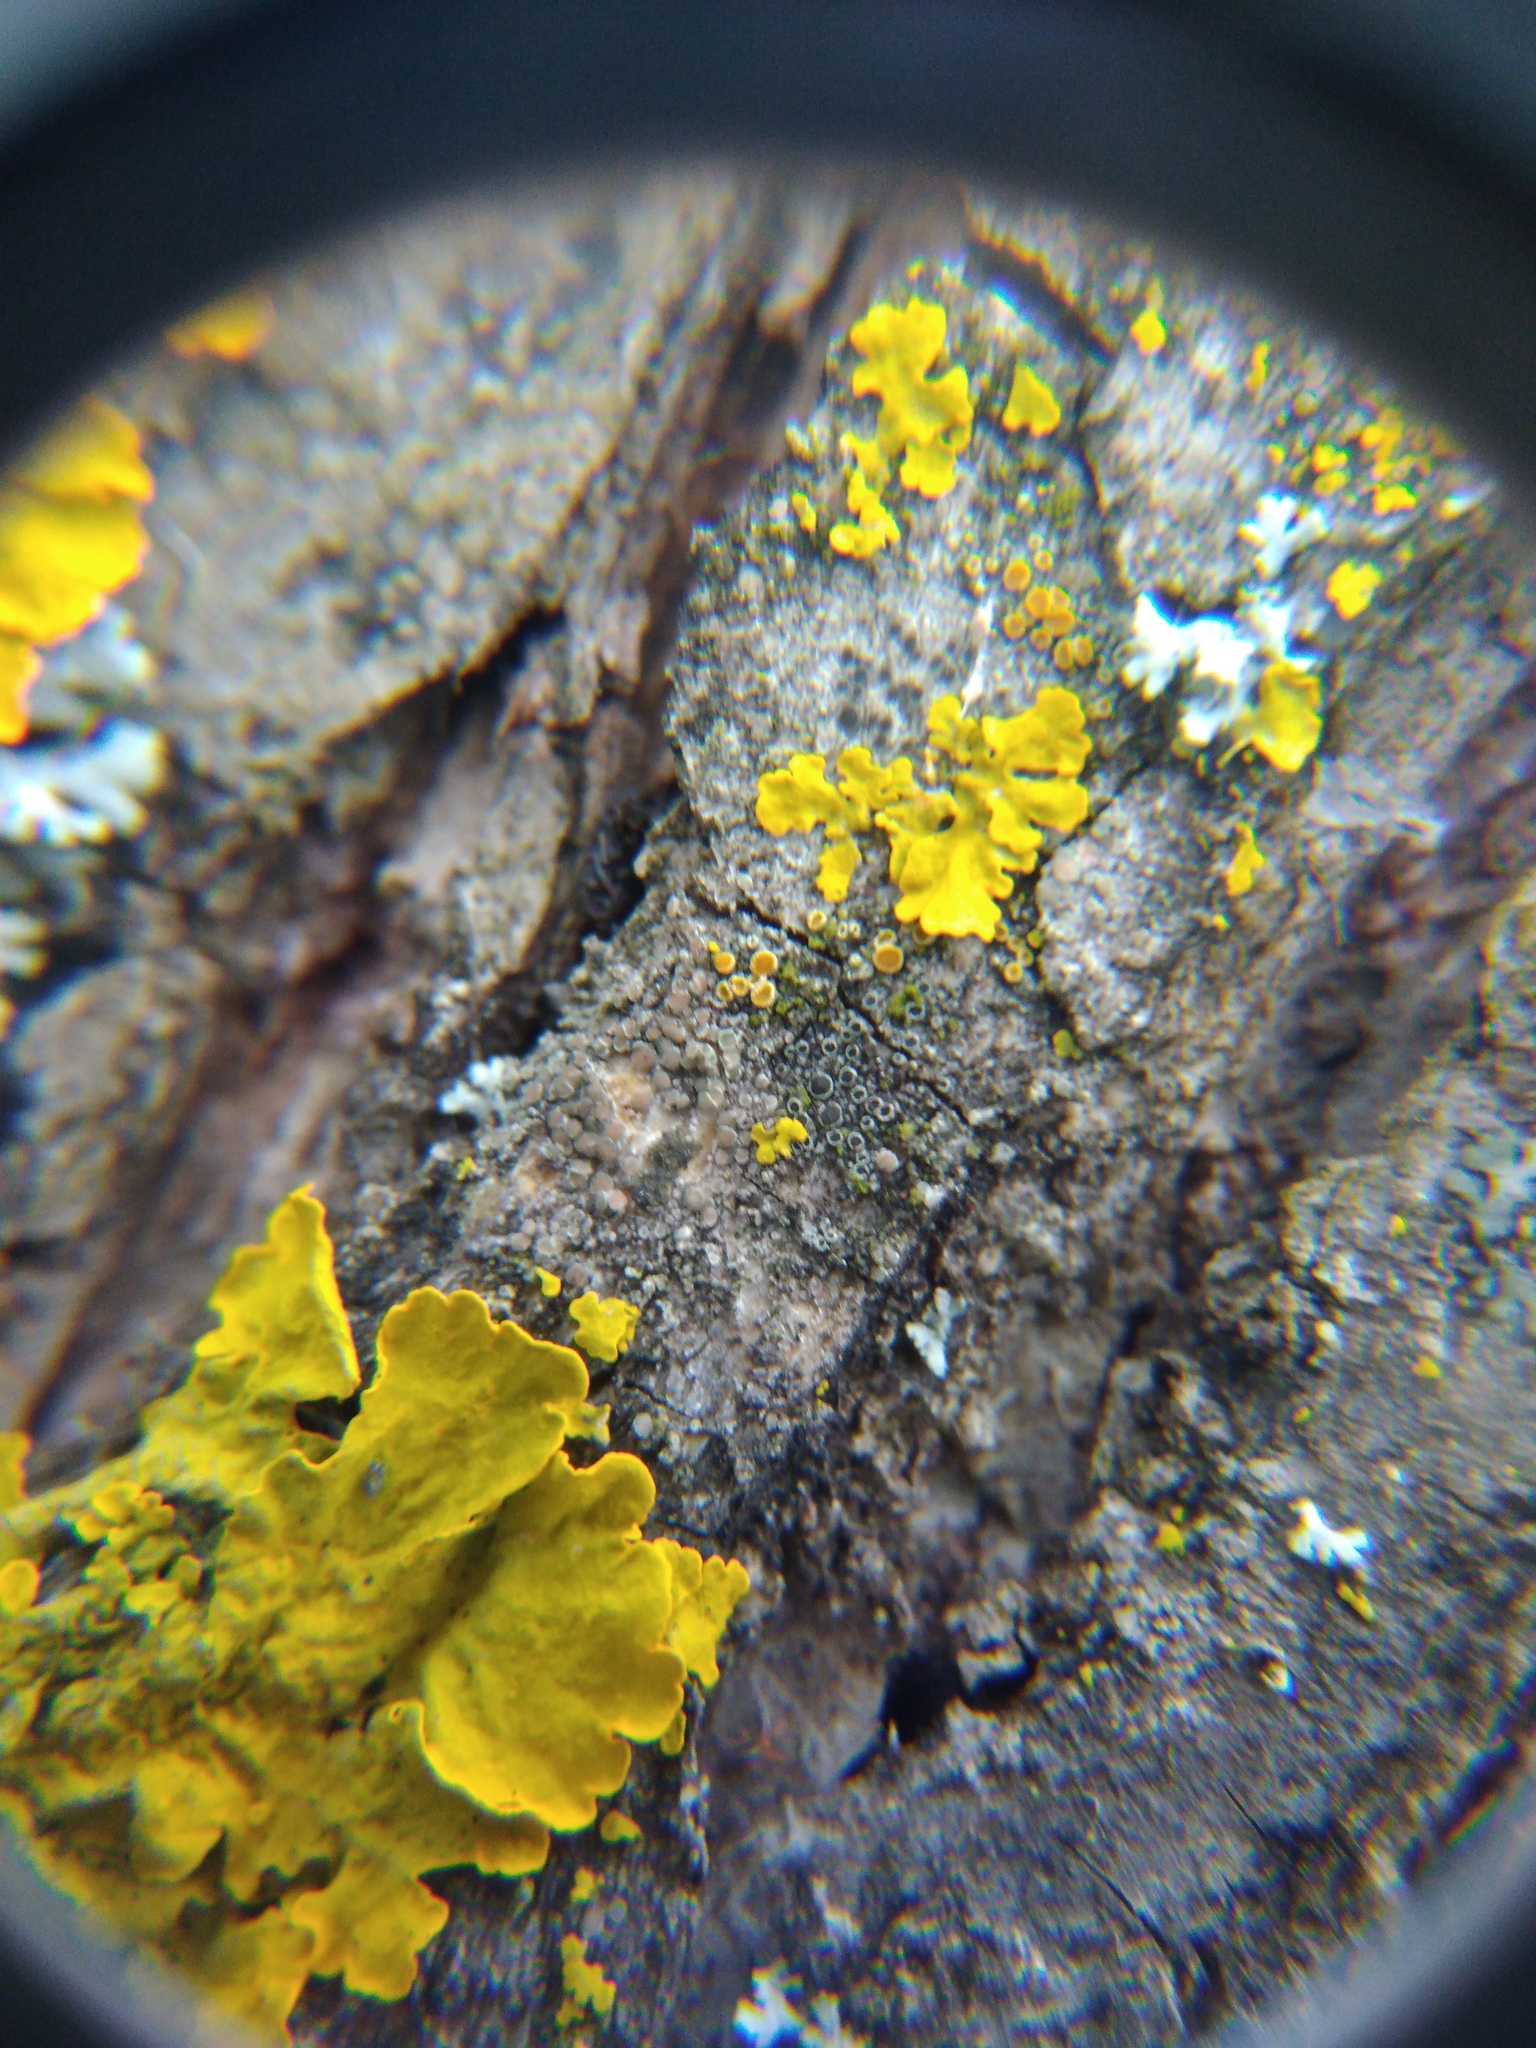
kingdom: Fungi
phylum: Ascomycota
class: Lecanoromycetes
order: Caliciales
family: Physciaceae
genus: Rinodina
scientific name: Rinodina pyrina
